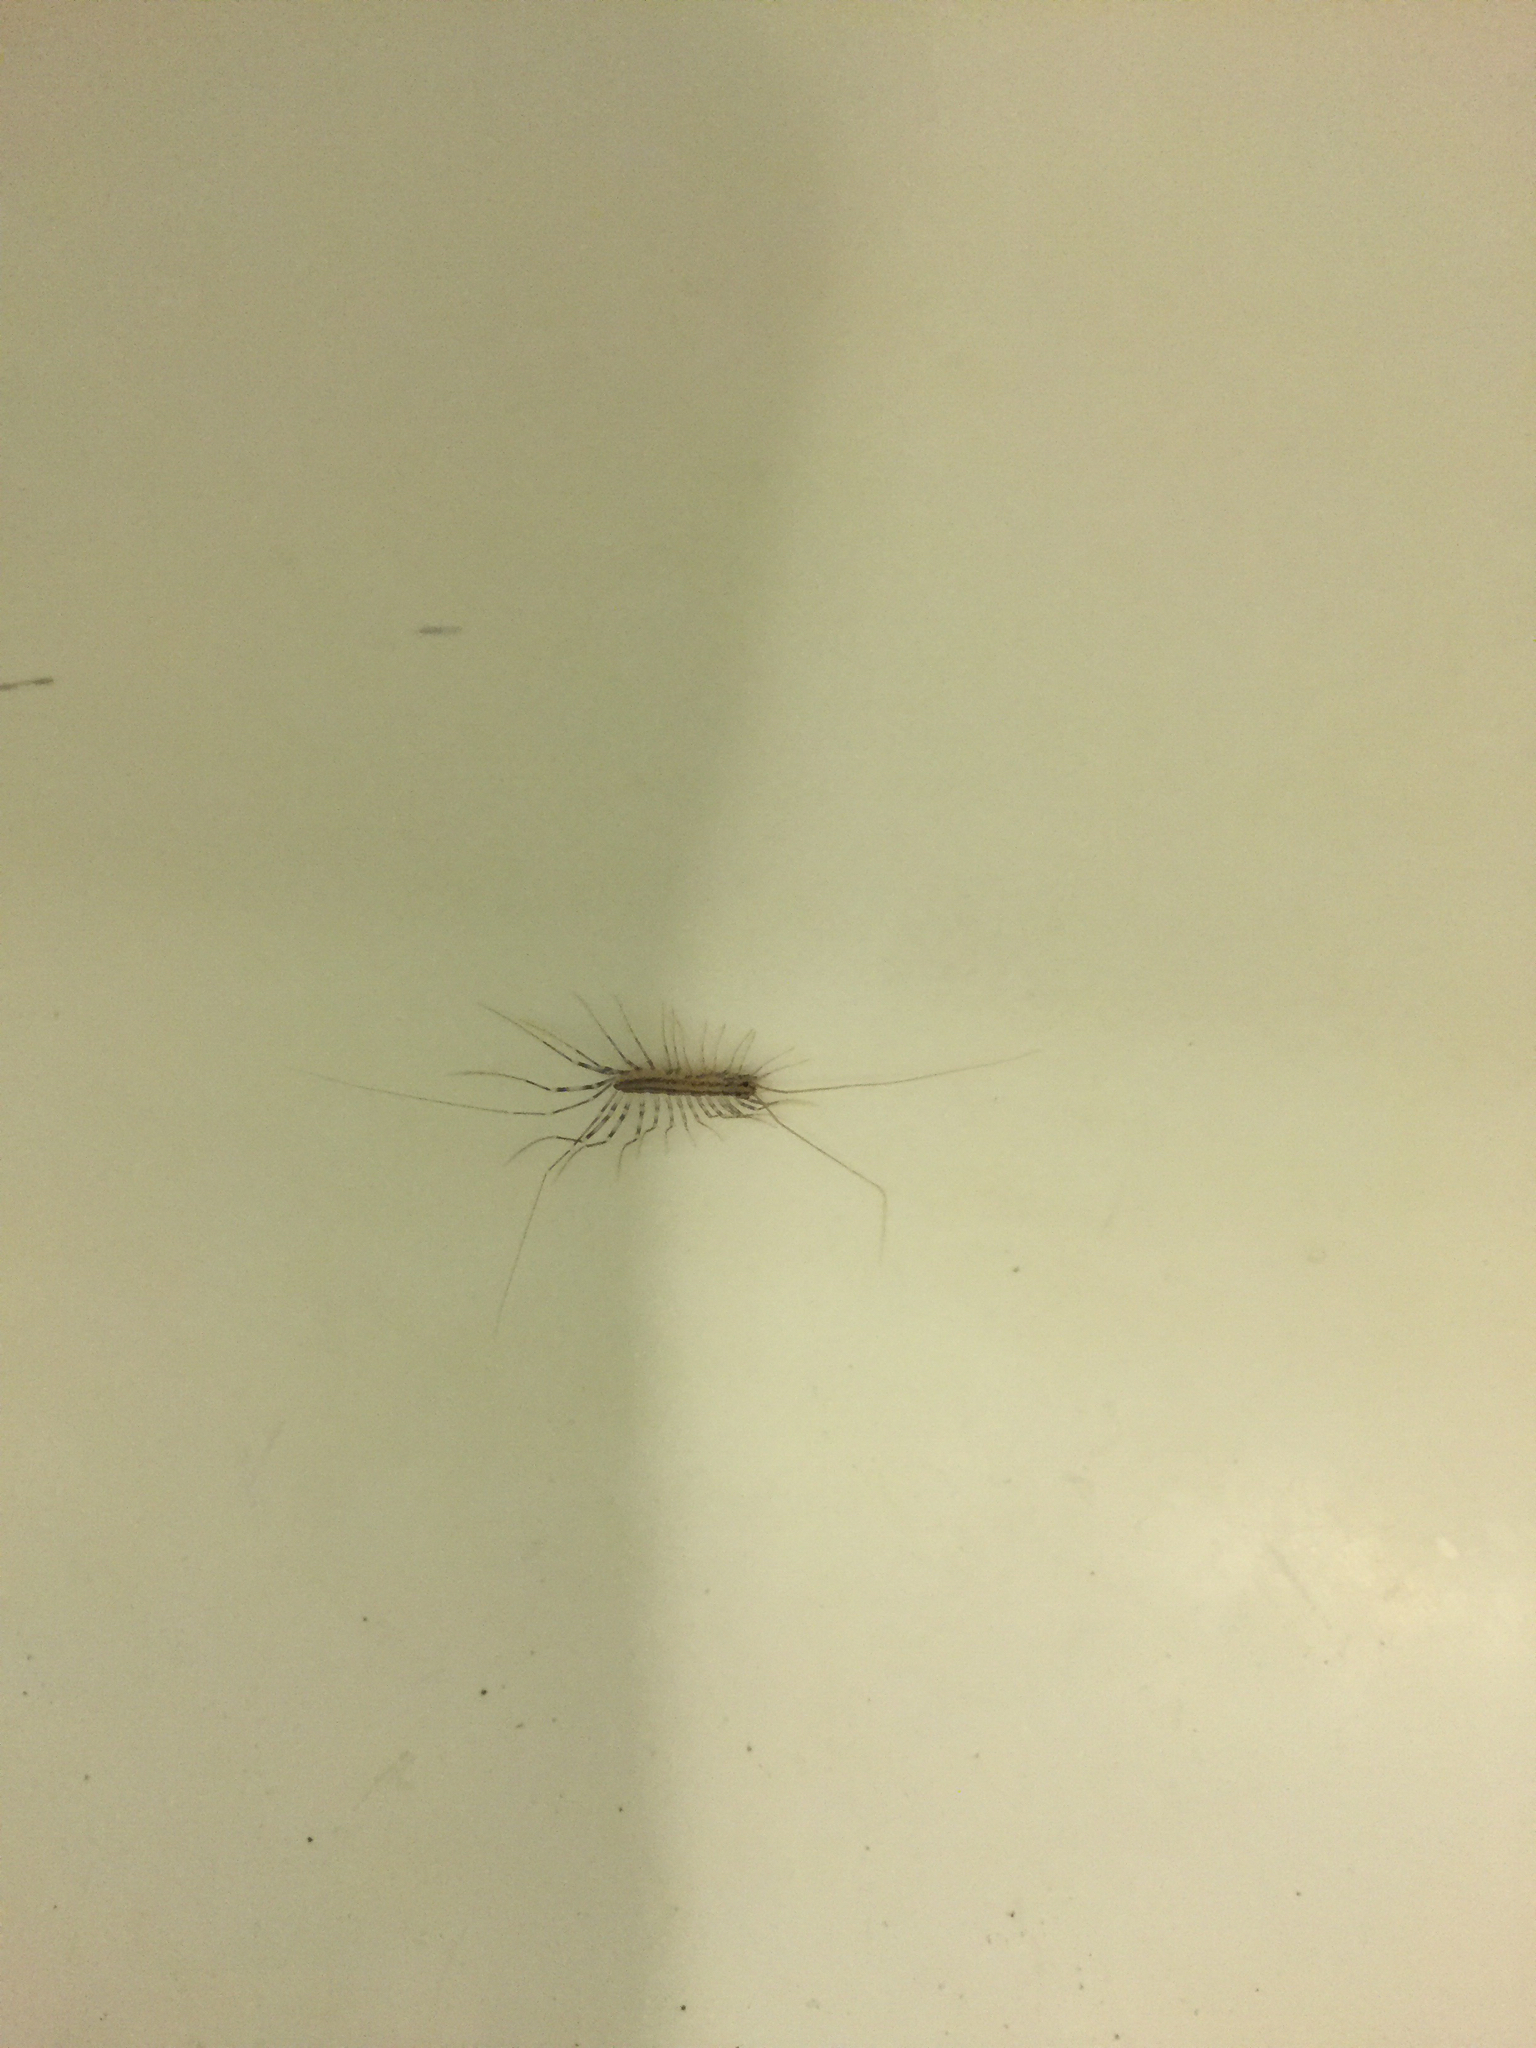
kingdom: Animalia
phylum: Arthropoda
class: Chilopoda
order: Scutigeromorpha
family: Scutigeridae
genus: Scutigera
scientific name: Scutigera coleoptrata
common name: House centipede
